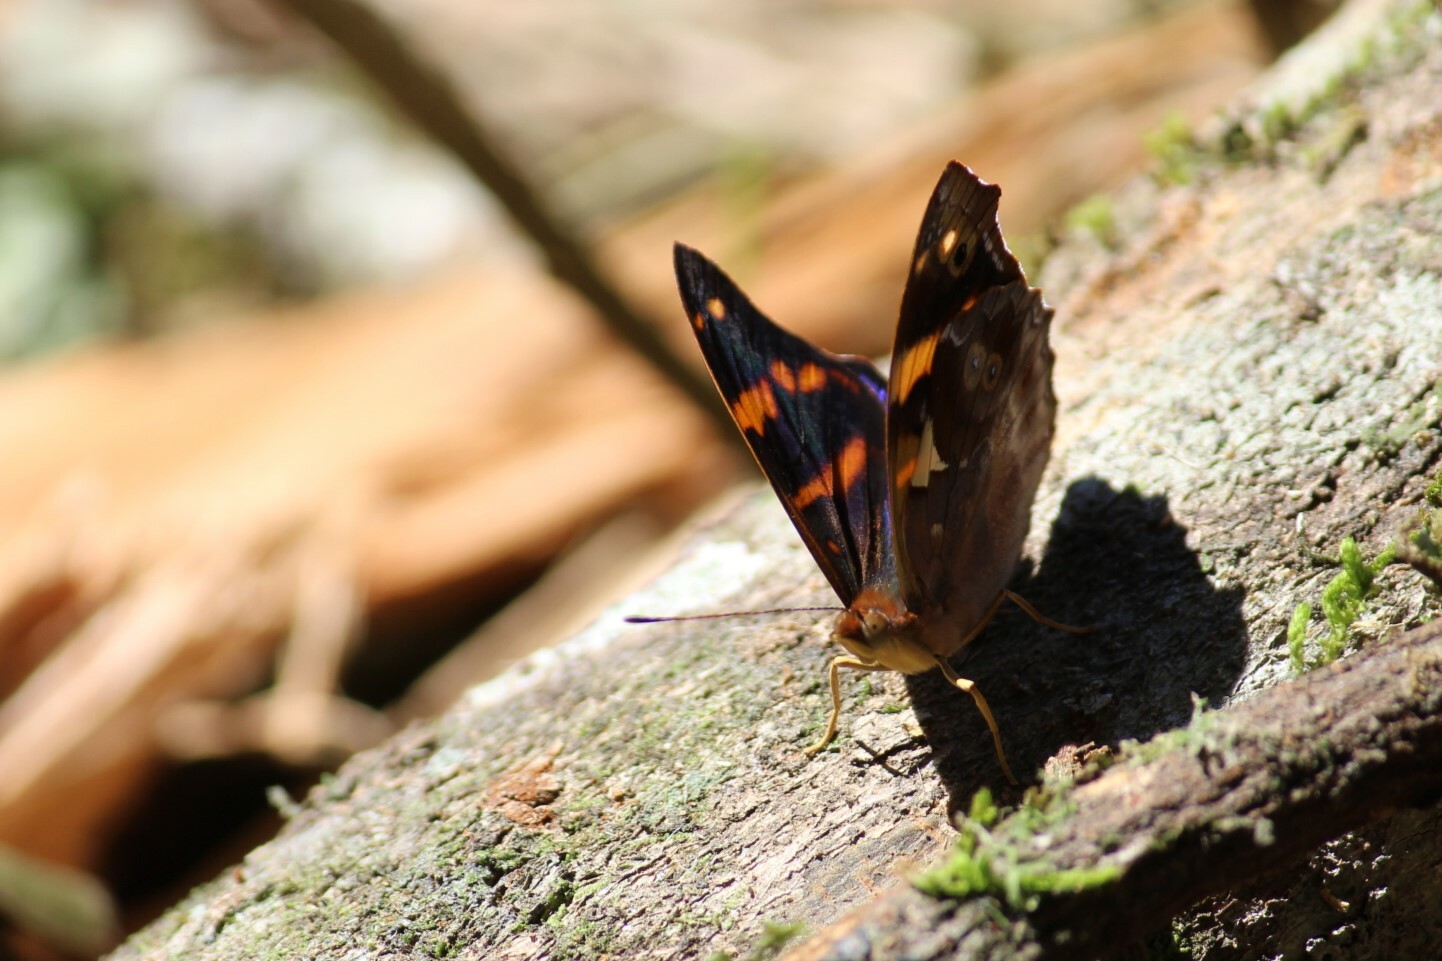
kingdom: Animalia
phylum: Arthropoda
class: Insecta
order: Lepidoptera
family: Nymphalidae
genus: Epiphile
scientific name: Epiphile orea
